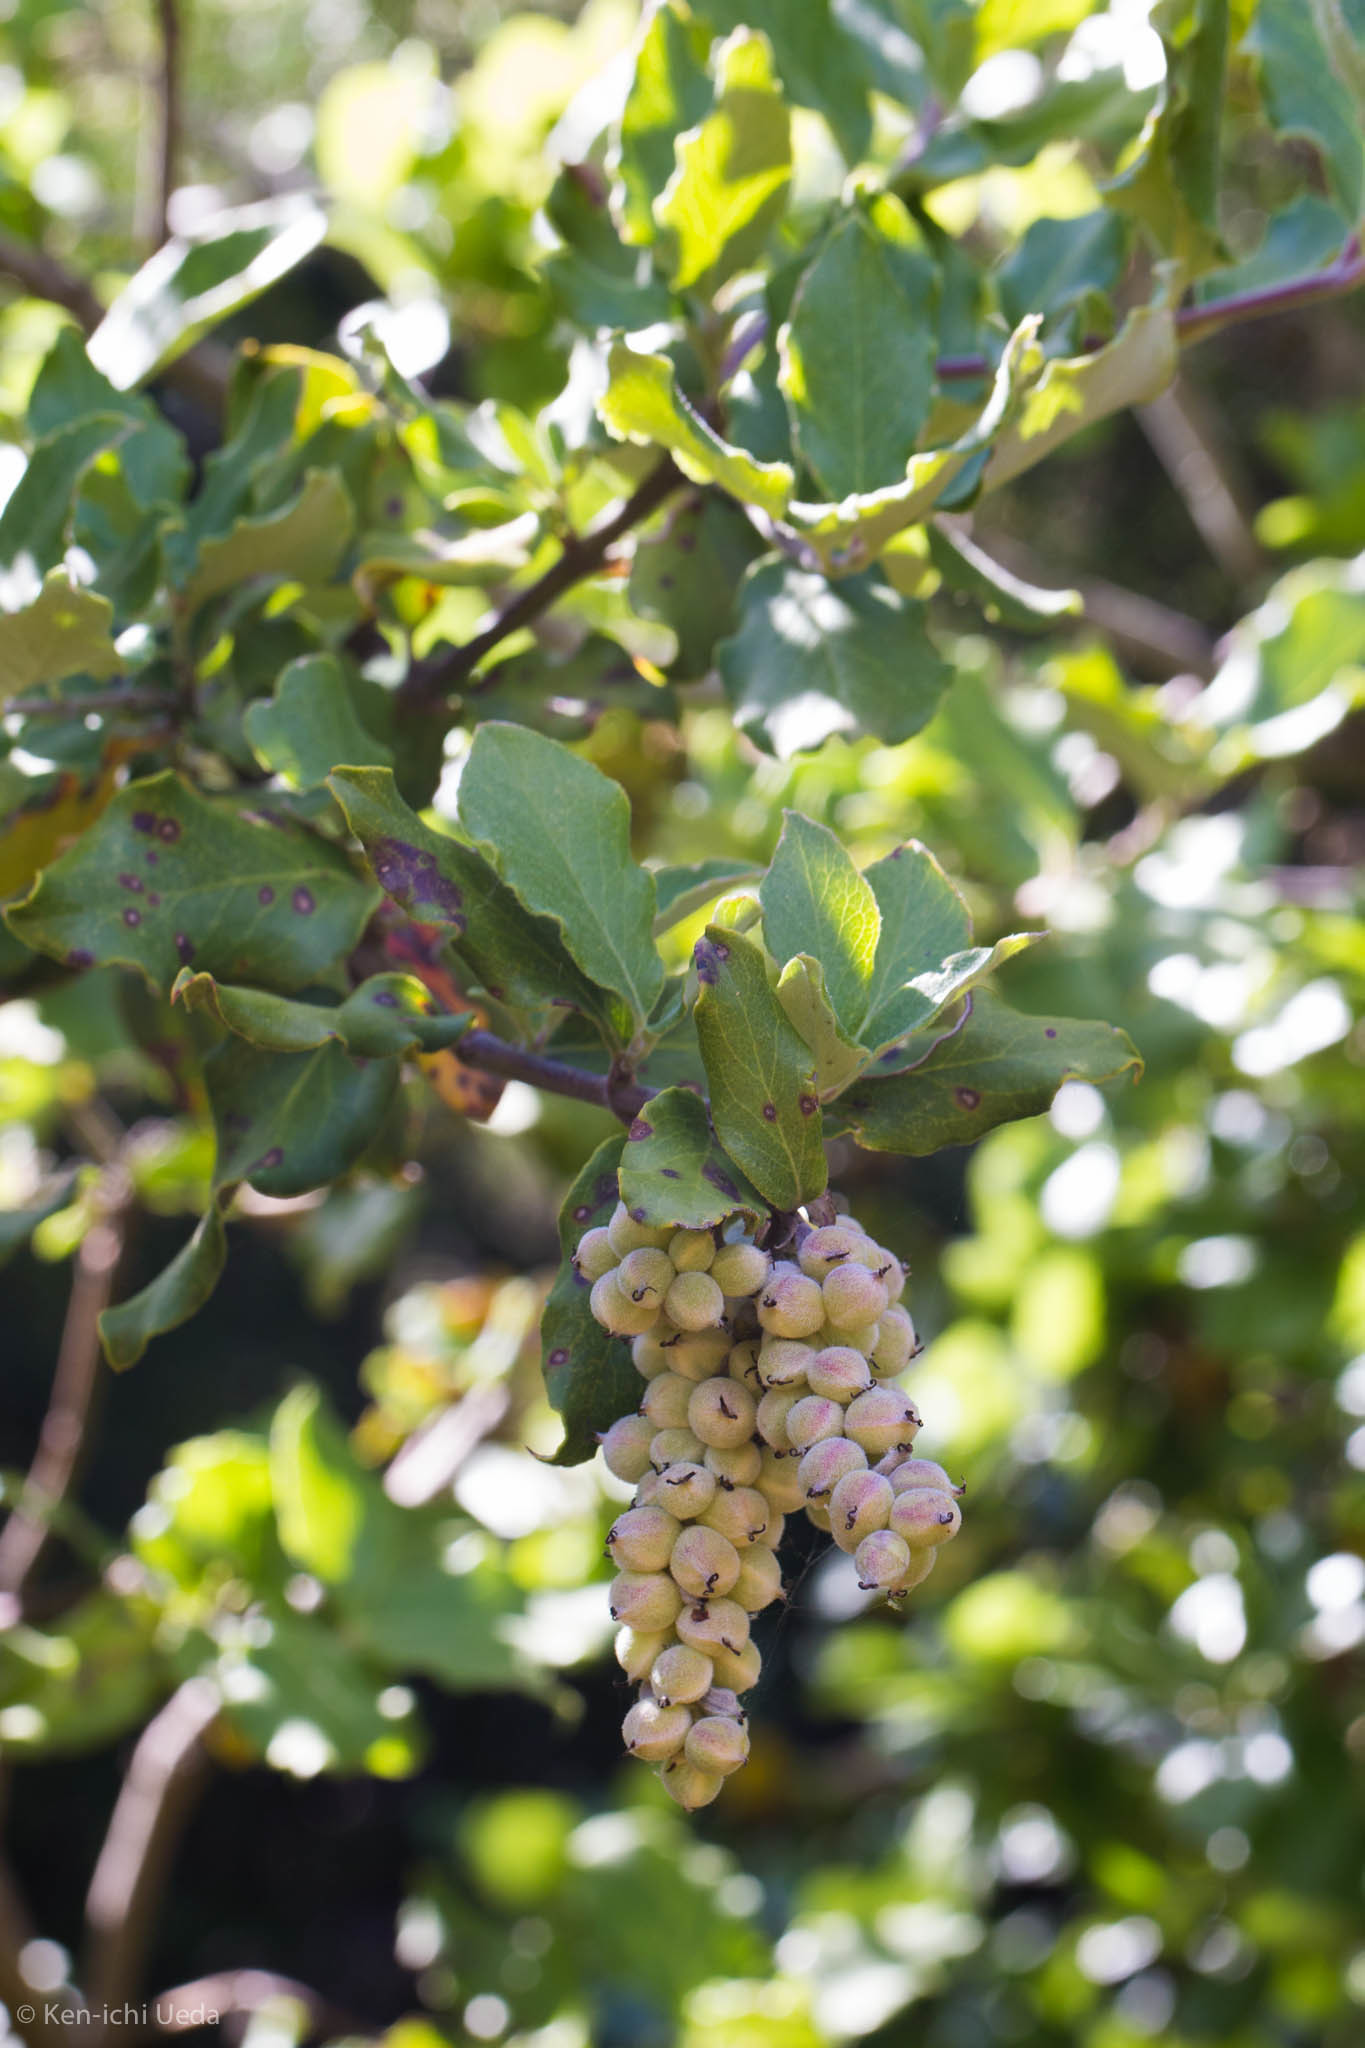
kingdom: Plantae
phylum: Tracheophyta
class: Magnoliopsida
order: Garryales
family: Garryaceae
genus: Garrya
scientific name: Garrya elliptica
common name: Silk-tassel
